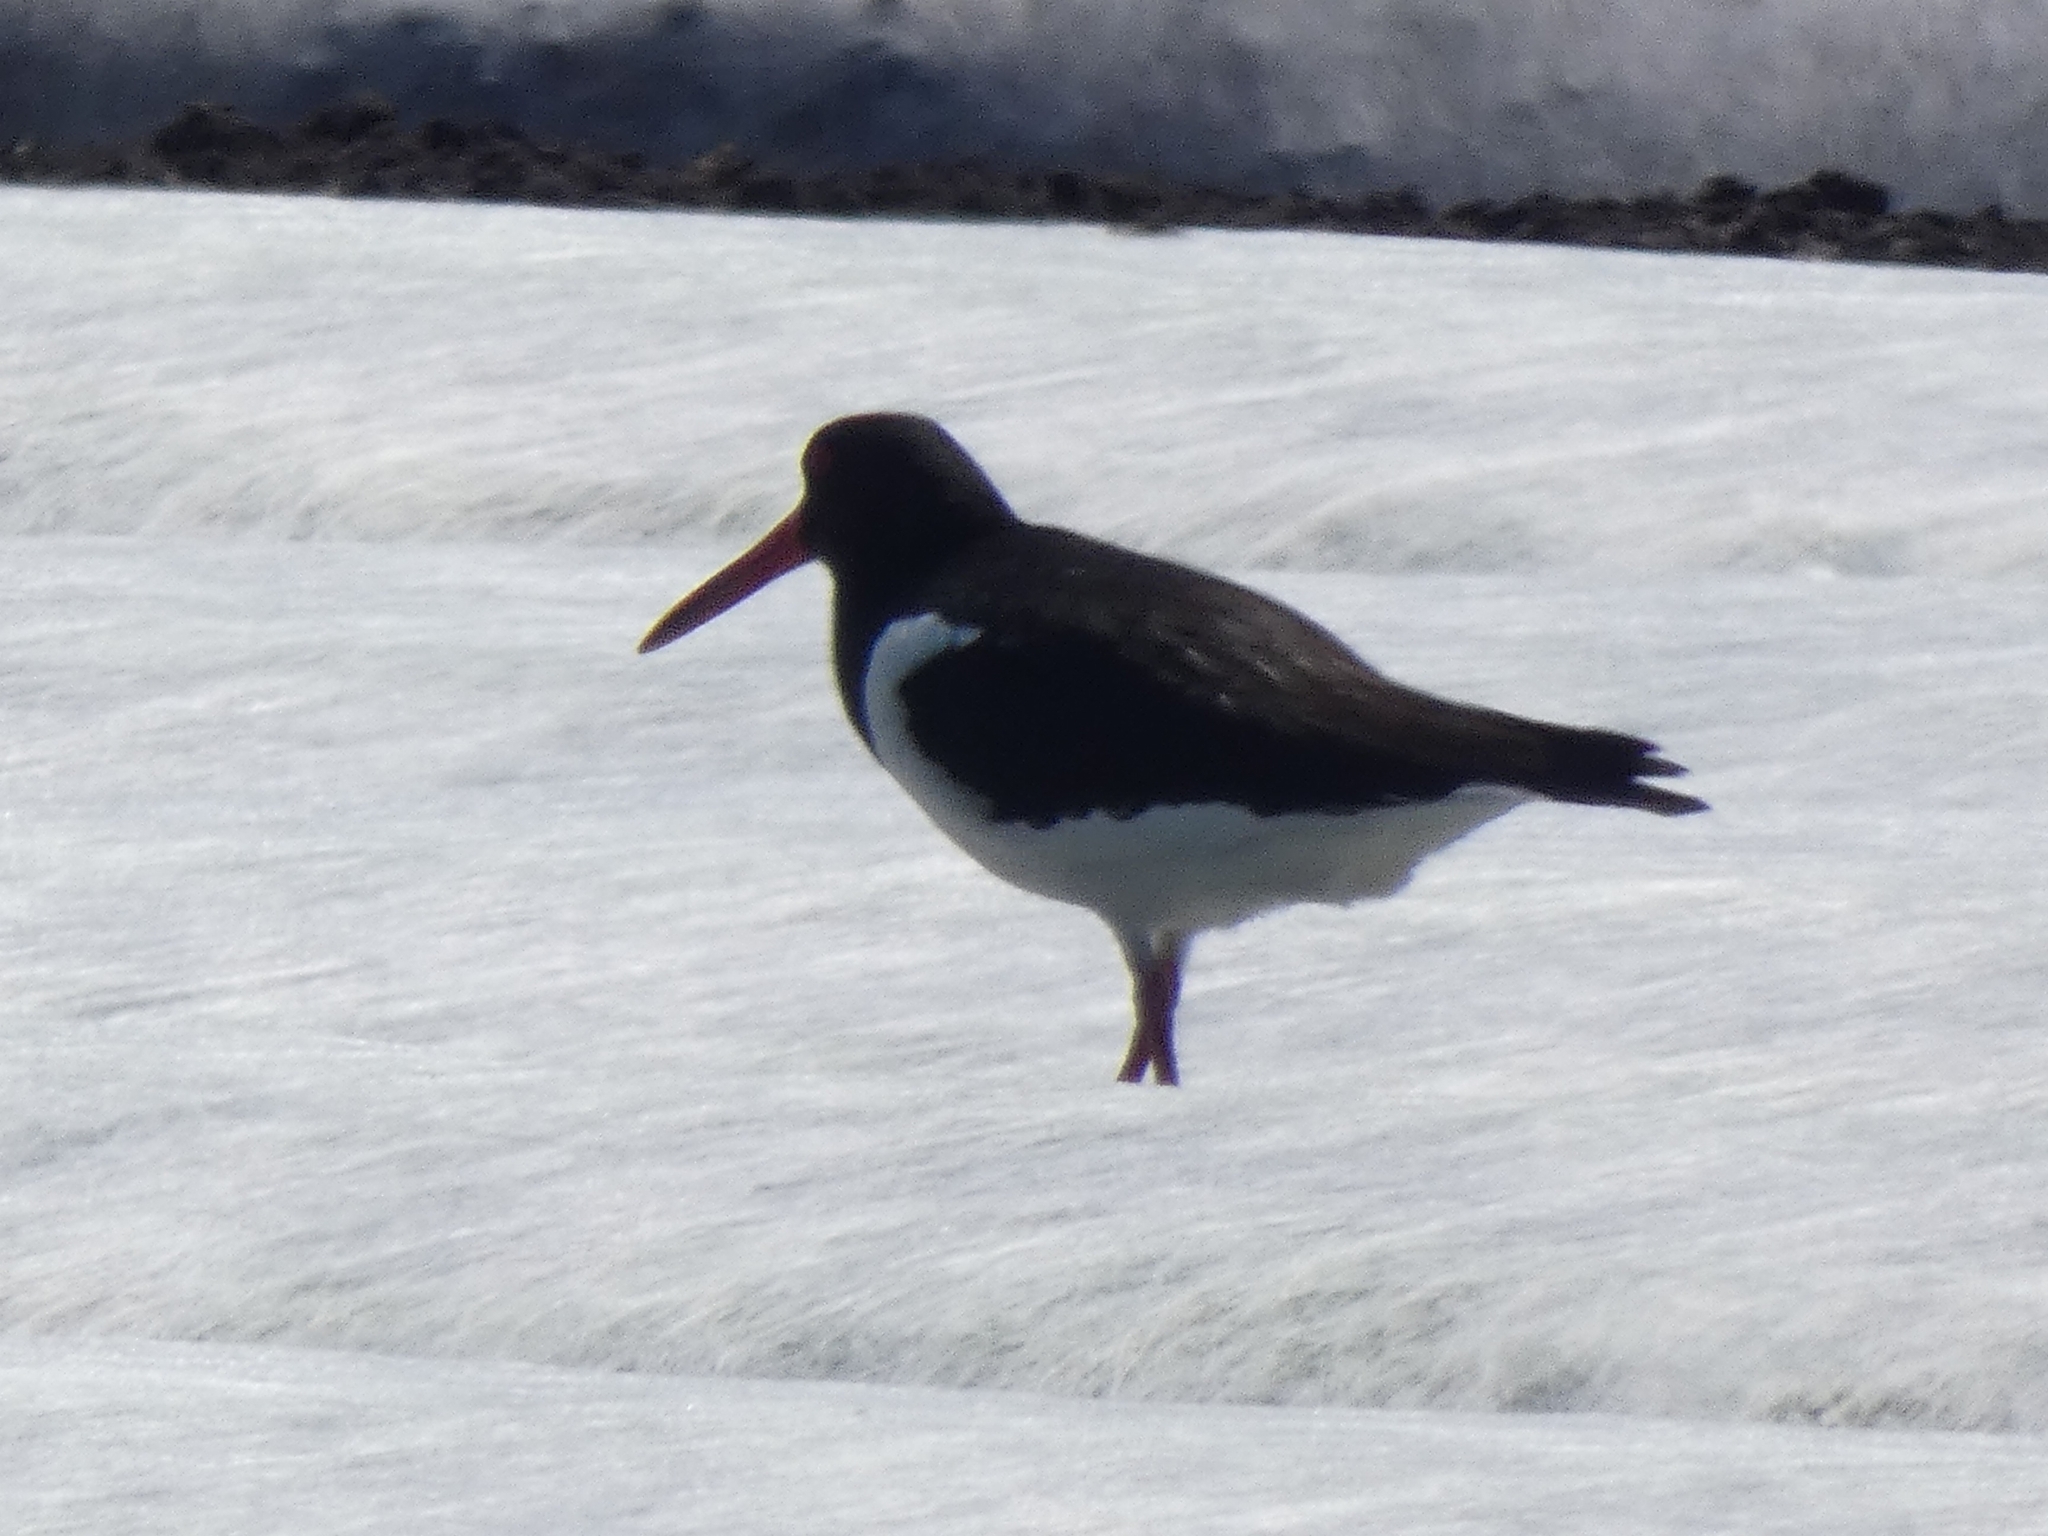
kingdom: Animalia
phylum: Chordata
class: Aves
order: Charadriiformes
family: Haematopodidae
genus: Haematopus
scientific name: Haematopus ostralegus
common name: Eurasian oystercatcher
